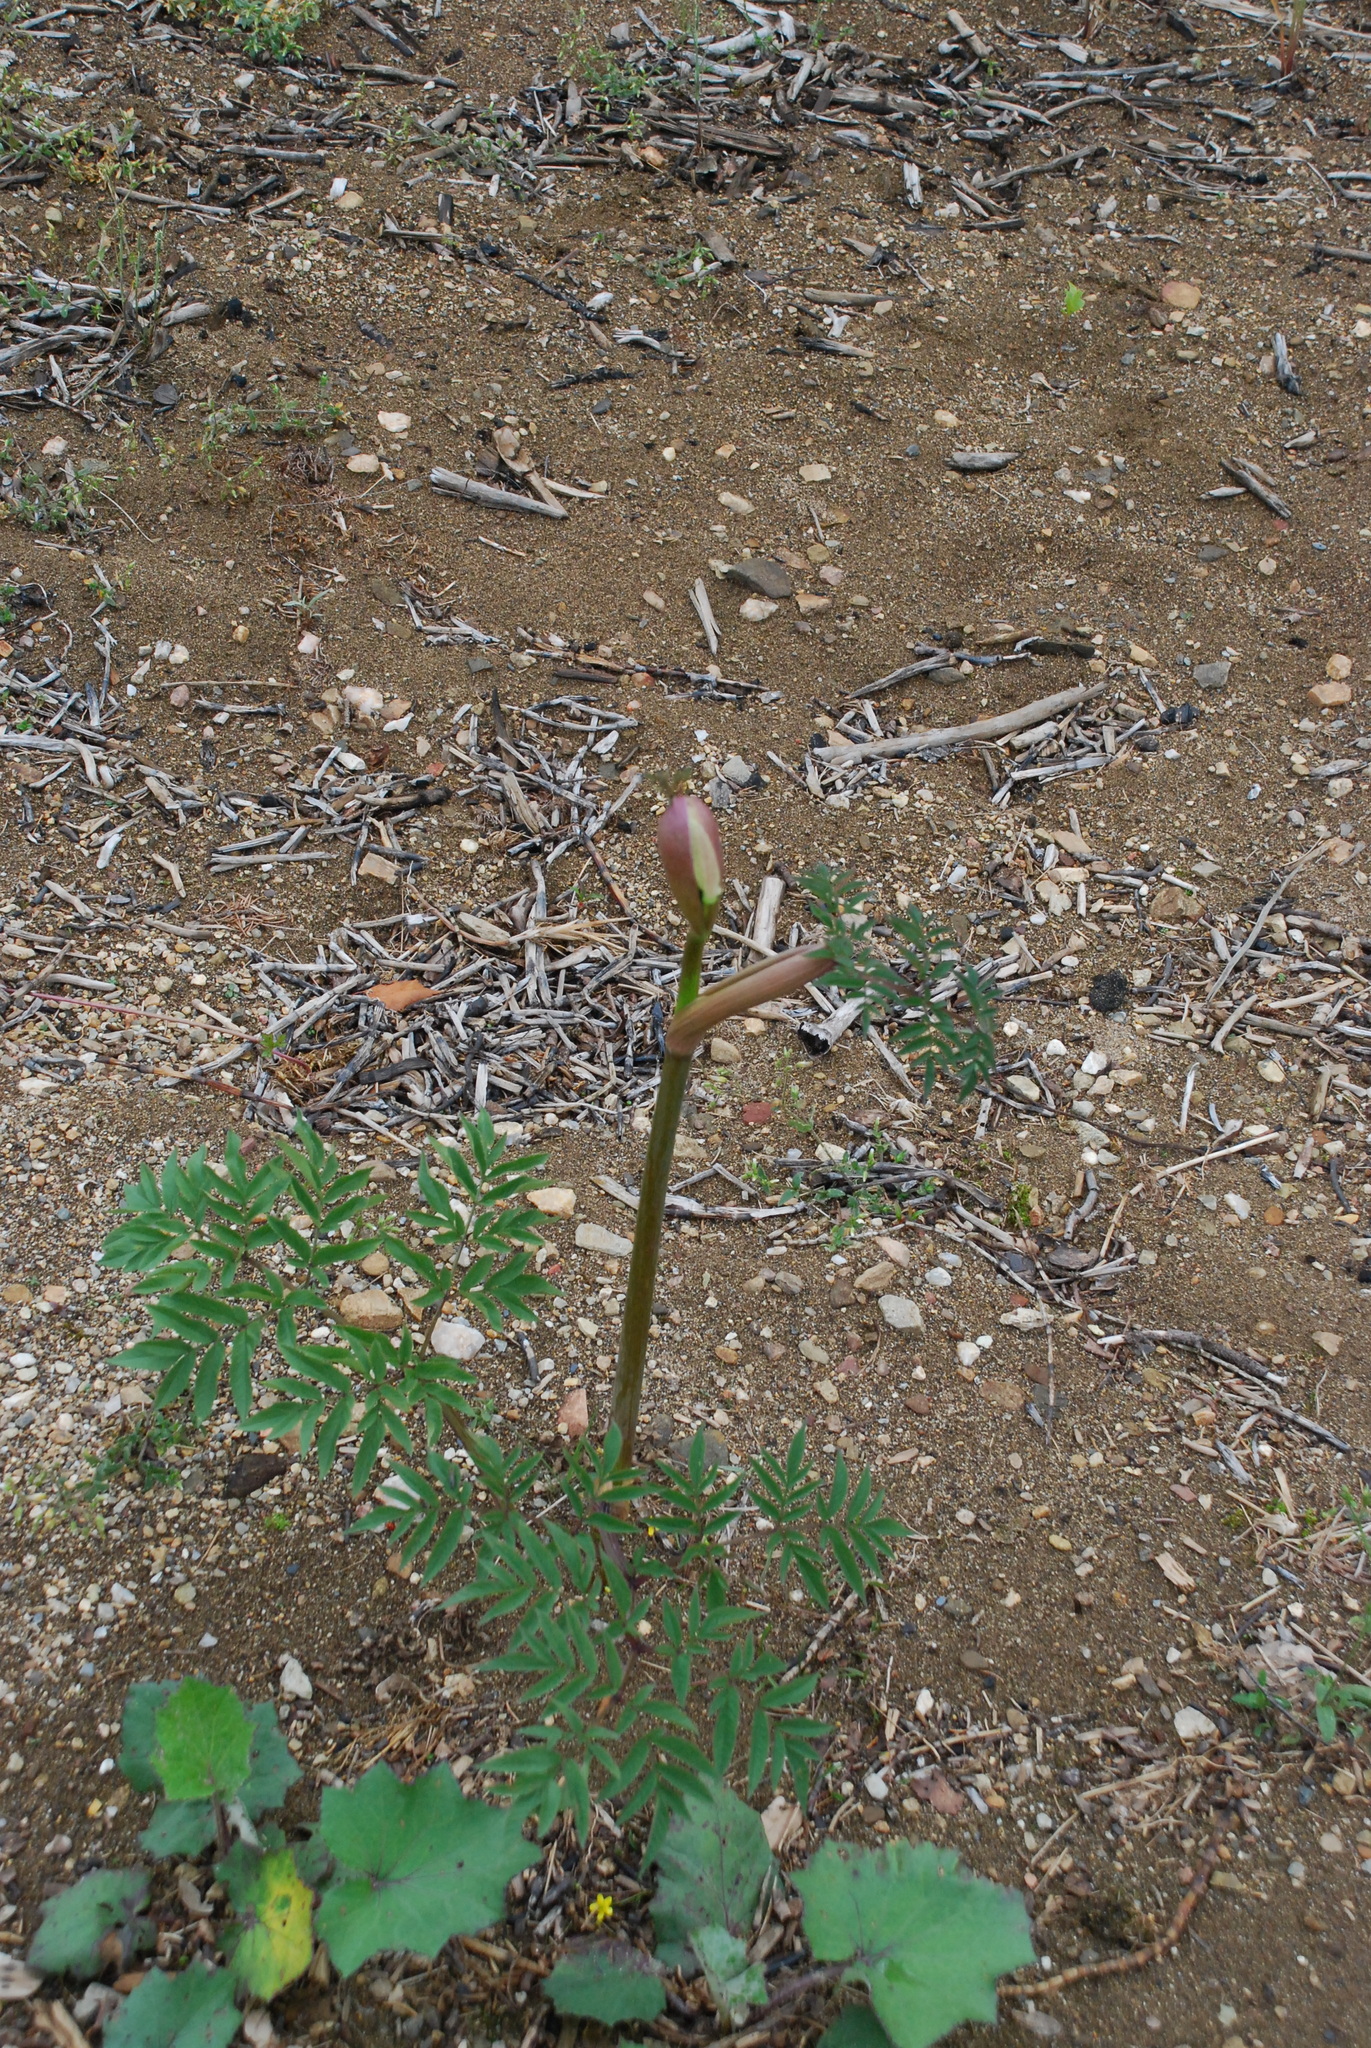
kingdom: Plantae
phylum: Tracheophyta
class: Magnoliopsida
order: Apiales
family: Apiaceae
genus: Angelica
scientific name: Angelica sylvestris
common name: Wild angelica
